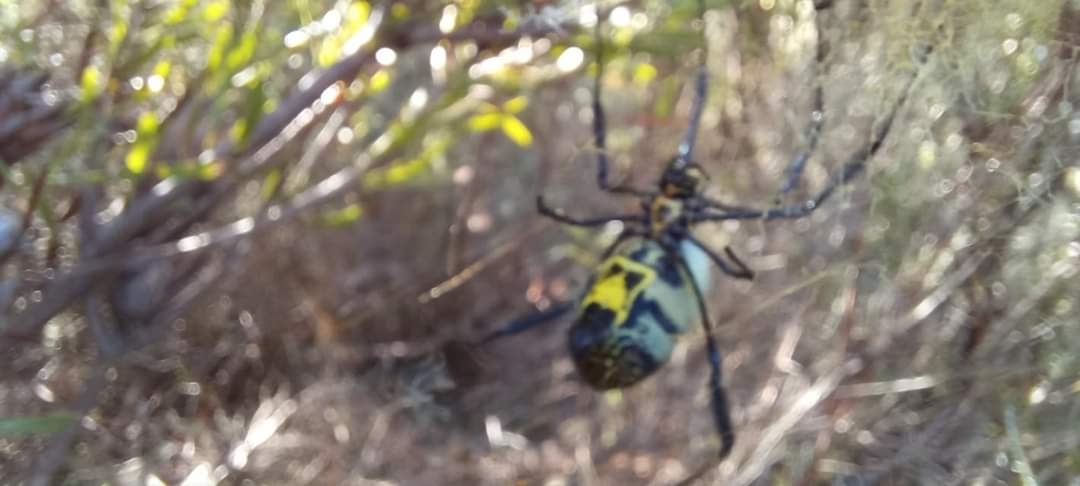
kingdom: Animalia
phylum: Arthropoda
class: Arachnida
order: Araneae
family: Araneidae
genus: Trichonephila
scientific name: Trichonephila fenestrata
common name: Hairy golden orb weaver
